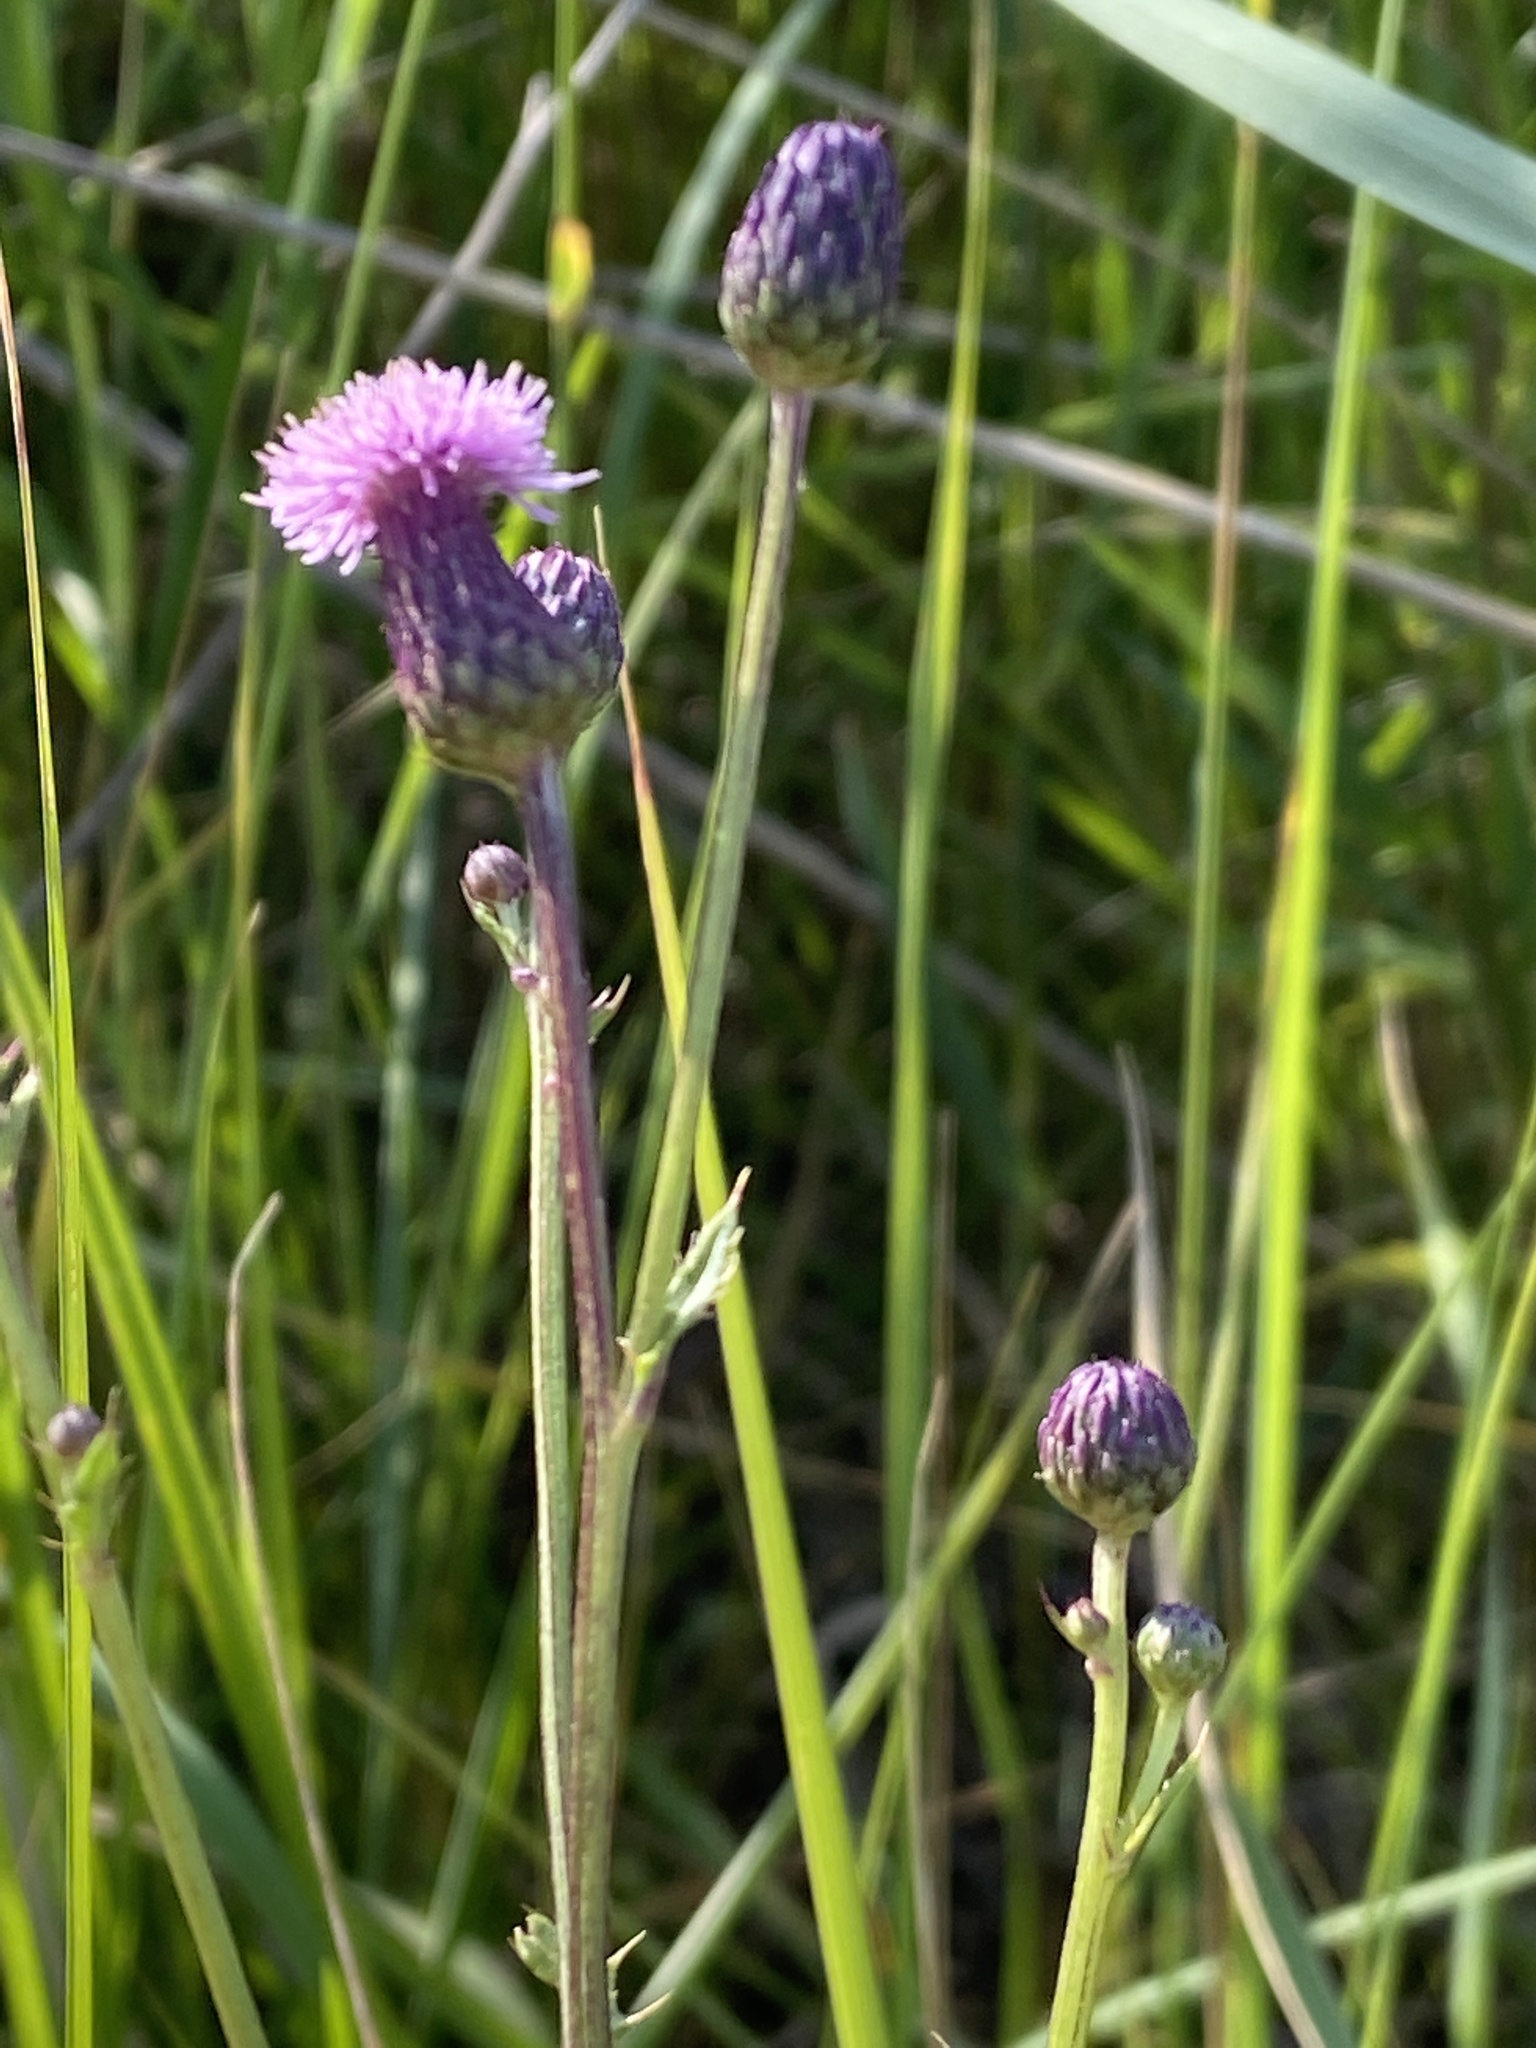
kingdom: Plantae
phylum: Tracheophyta
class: Magnoliopsida
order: Asterales
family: Asteraceae
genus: Cirsium
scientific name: Cirsium arvense
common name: Creeping thistle
